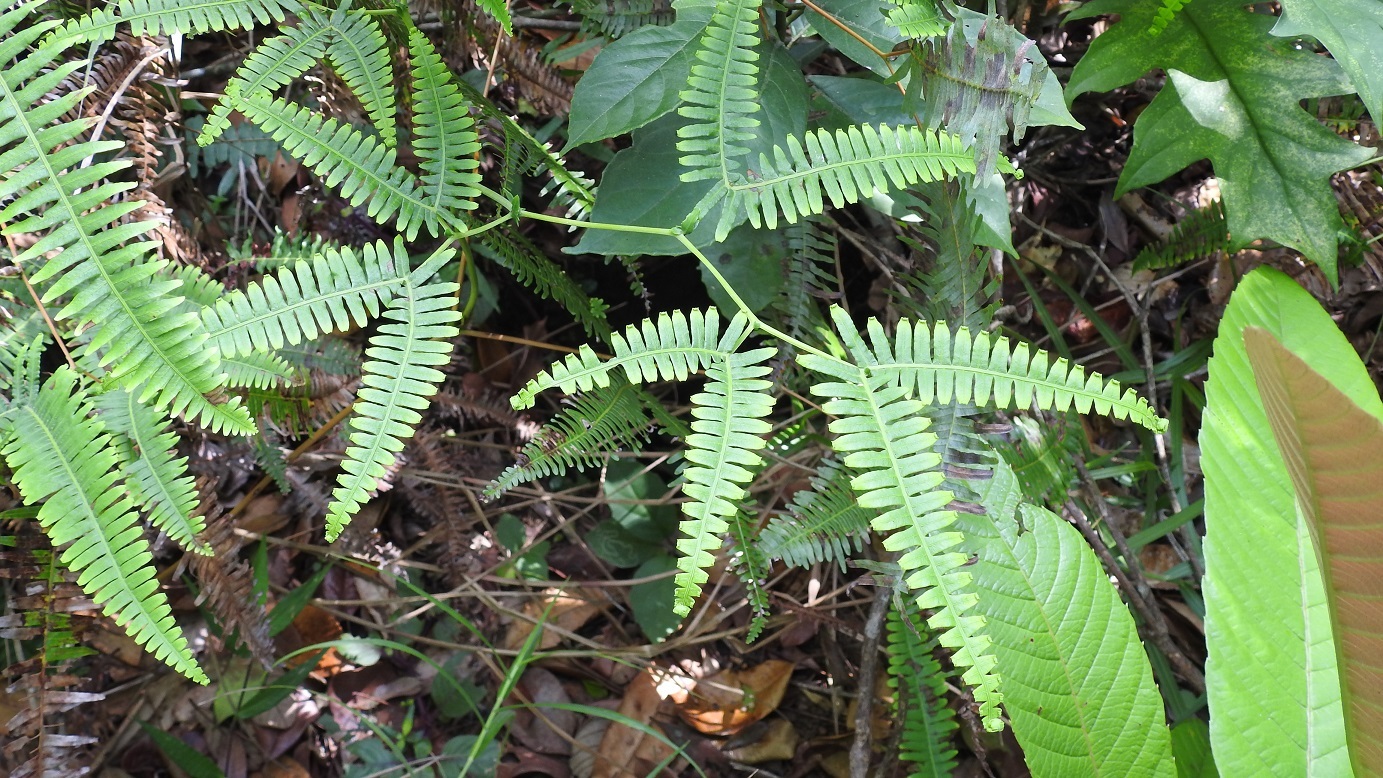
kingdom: Plantae
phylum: Tracheophyta
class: Polypodiopsida
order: Gleicheniales
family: Gleicheniaceae
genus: Gleichenella
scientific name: Gleichenella pectinata
